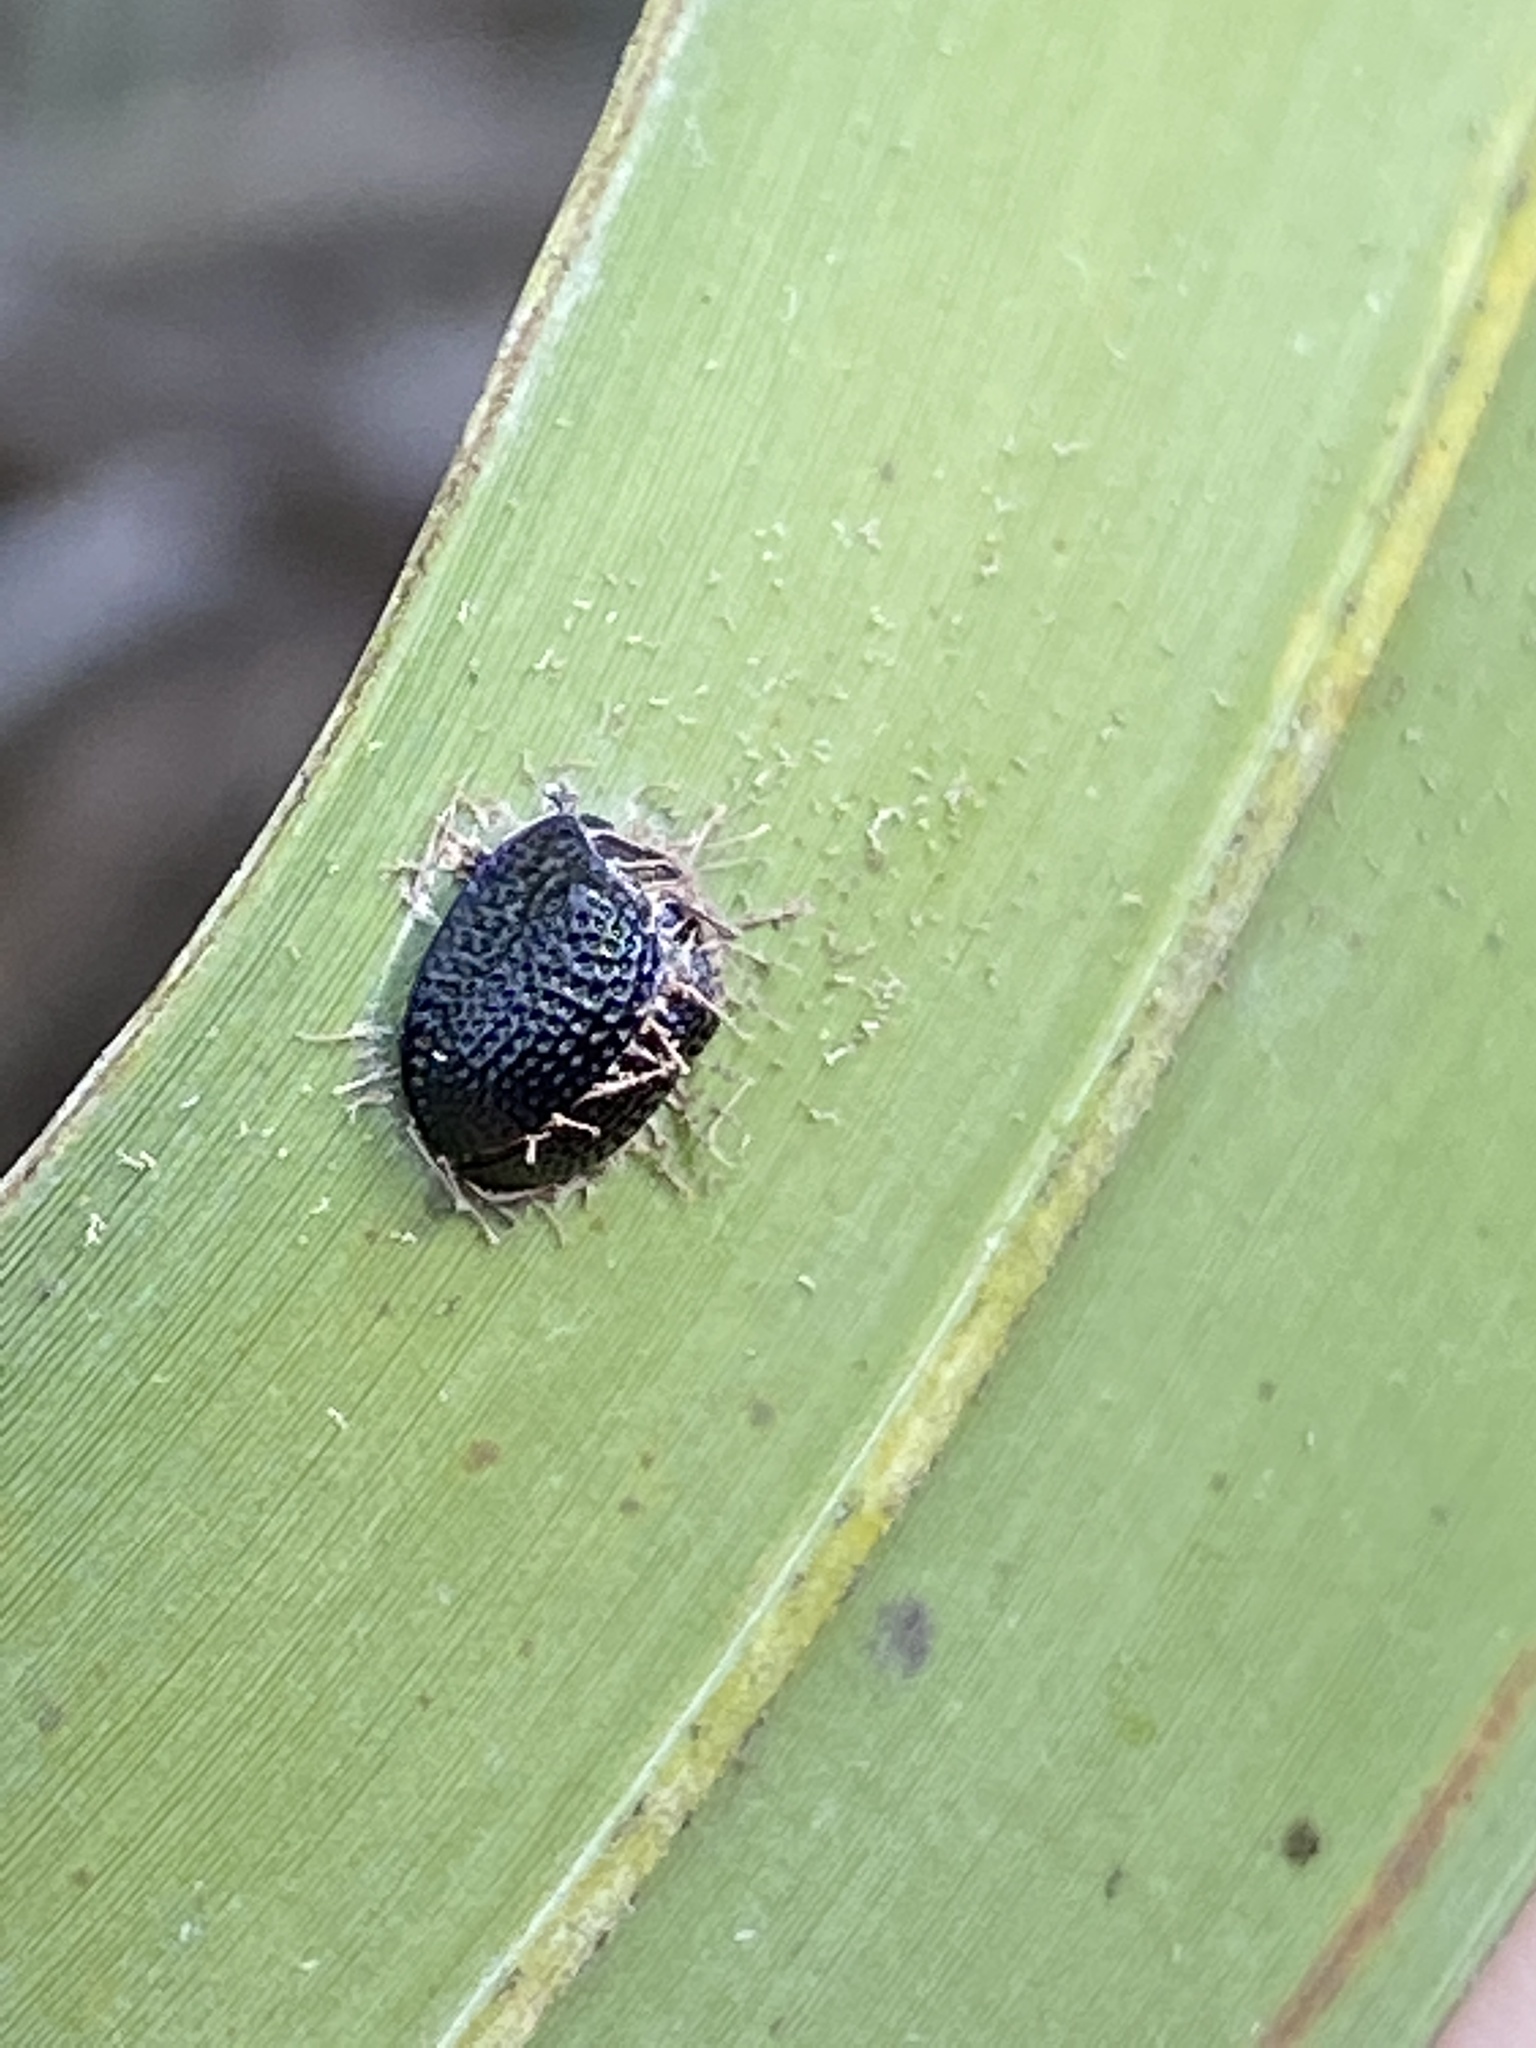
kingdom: Animalia
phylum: Arthropoda
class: Insecta
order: Coleoptera
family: Chrysomelidae
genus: Hemisphaerota
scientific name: Hemisphaerota cyanea
